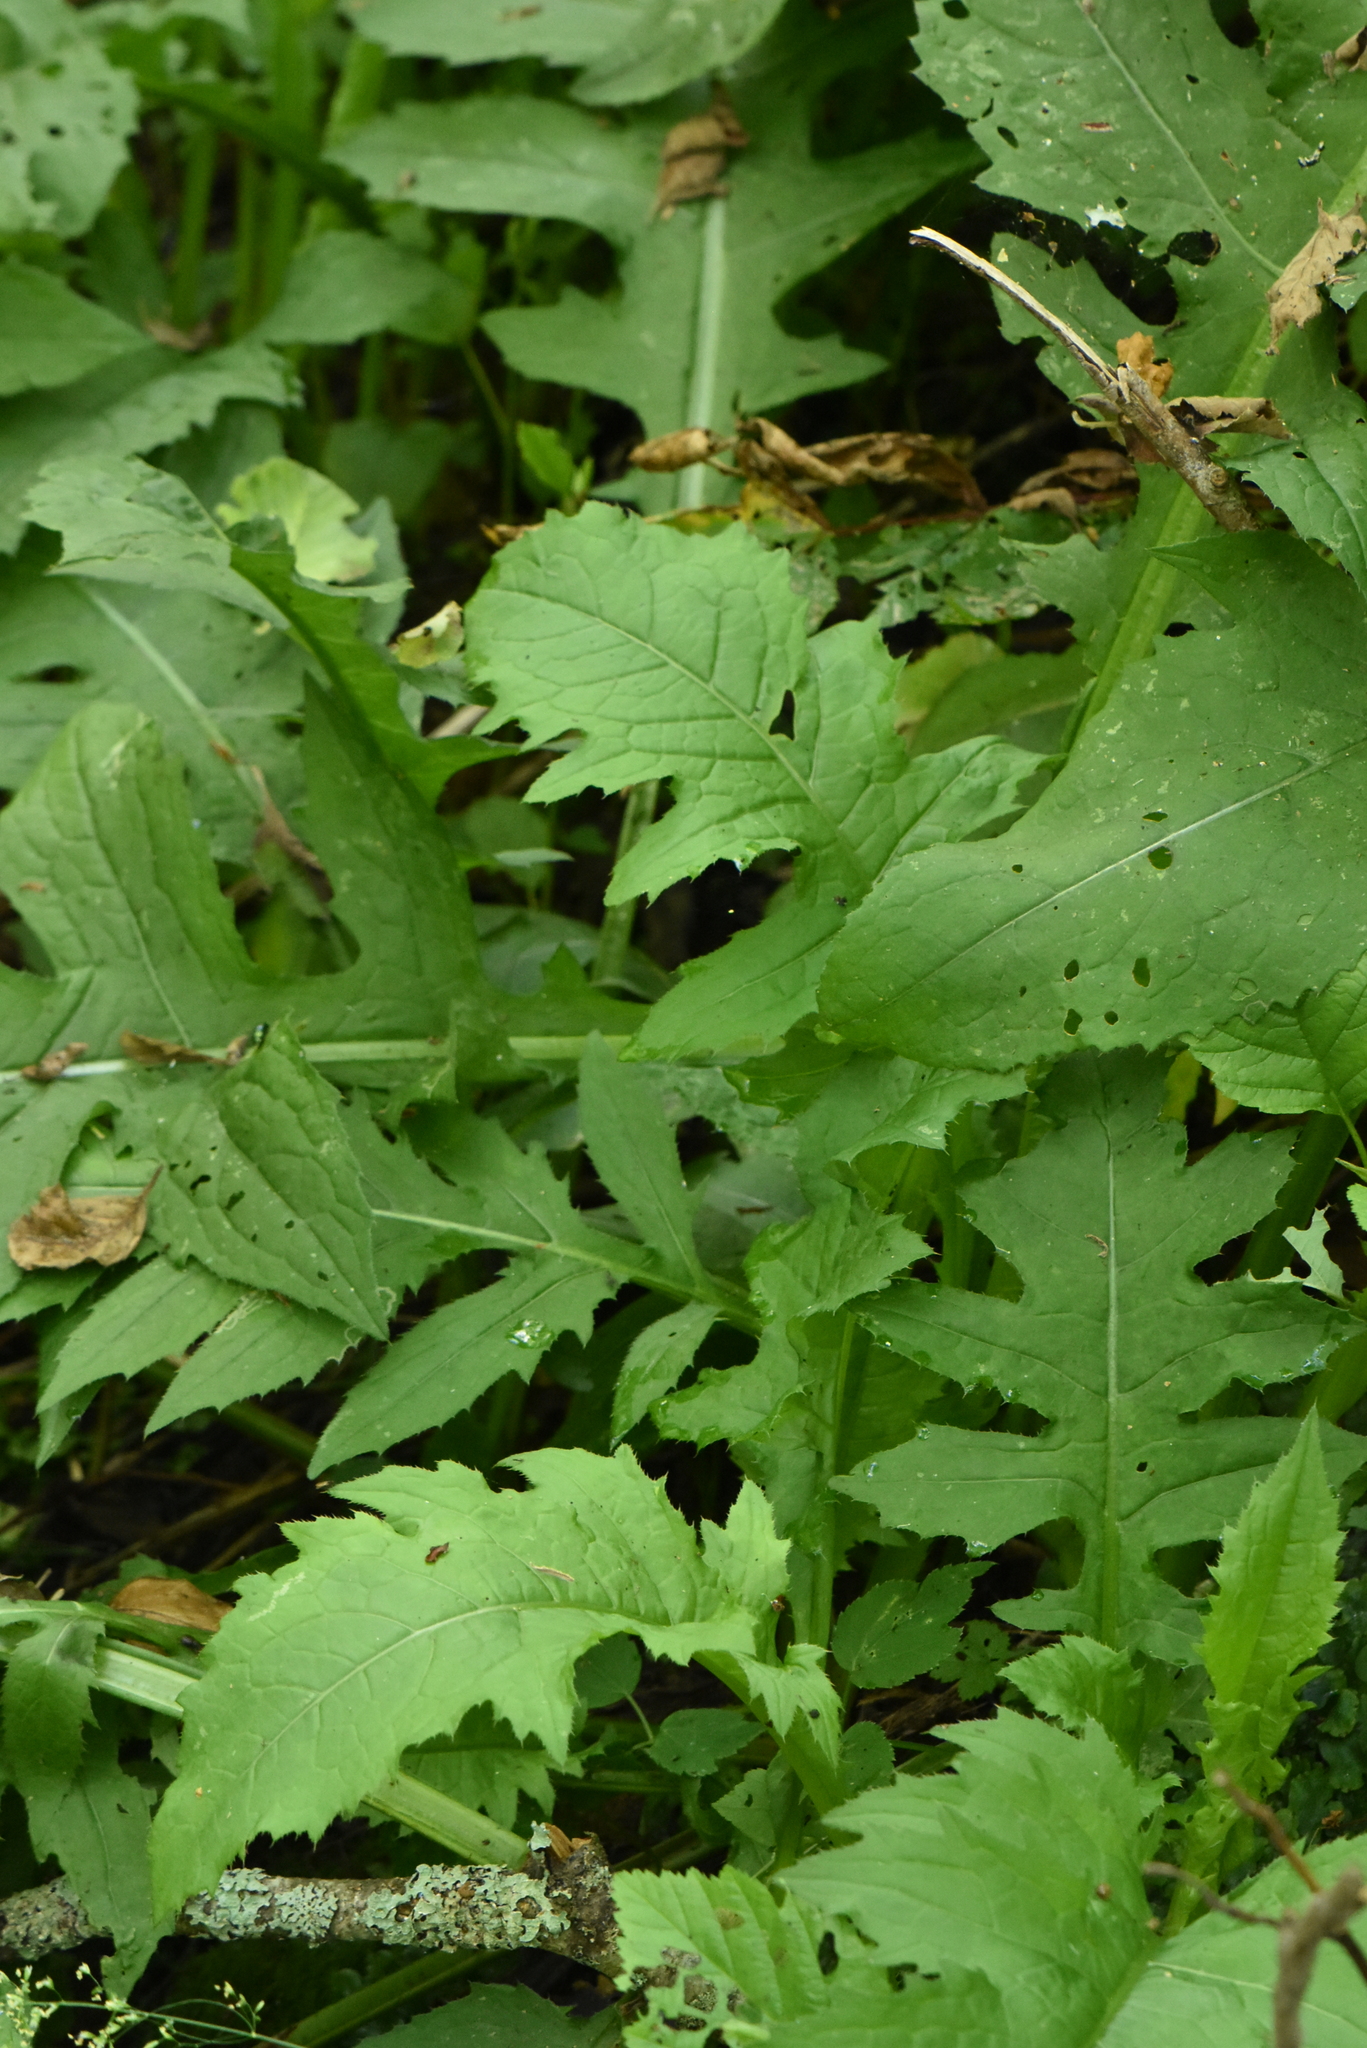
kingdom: Plantae
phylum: Tracheophyta
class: Magnoliopsida
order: Asterales
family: Asteraceae
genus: Cirsium
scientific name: Cirsium oleraceum
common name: Cabbage thistle
